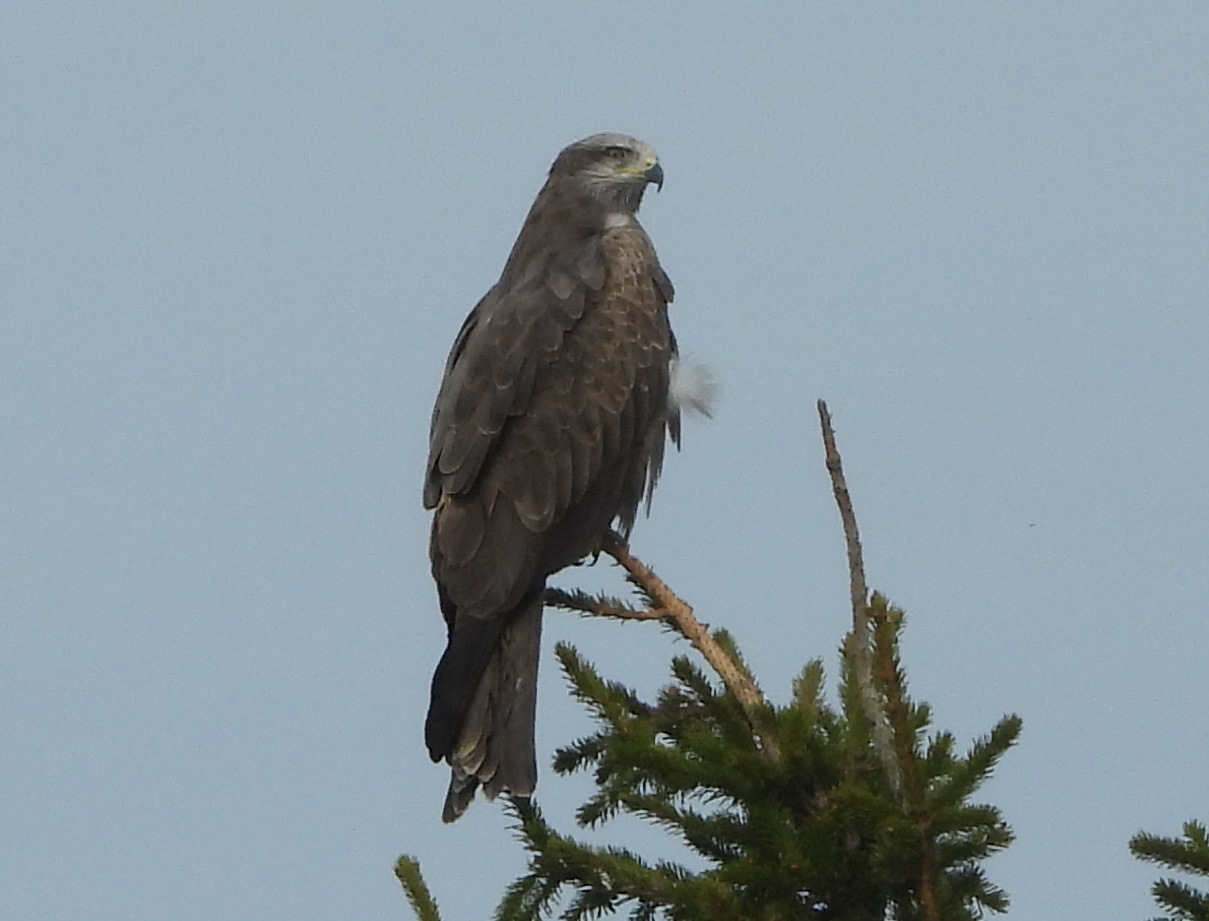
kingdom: Animalia
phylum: Chordata
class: Aves
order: Accipitriformes
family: Accipitridae
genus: Milvus
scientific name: Milvus migrans
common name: Black kite
